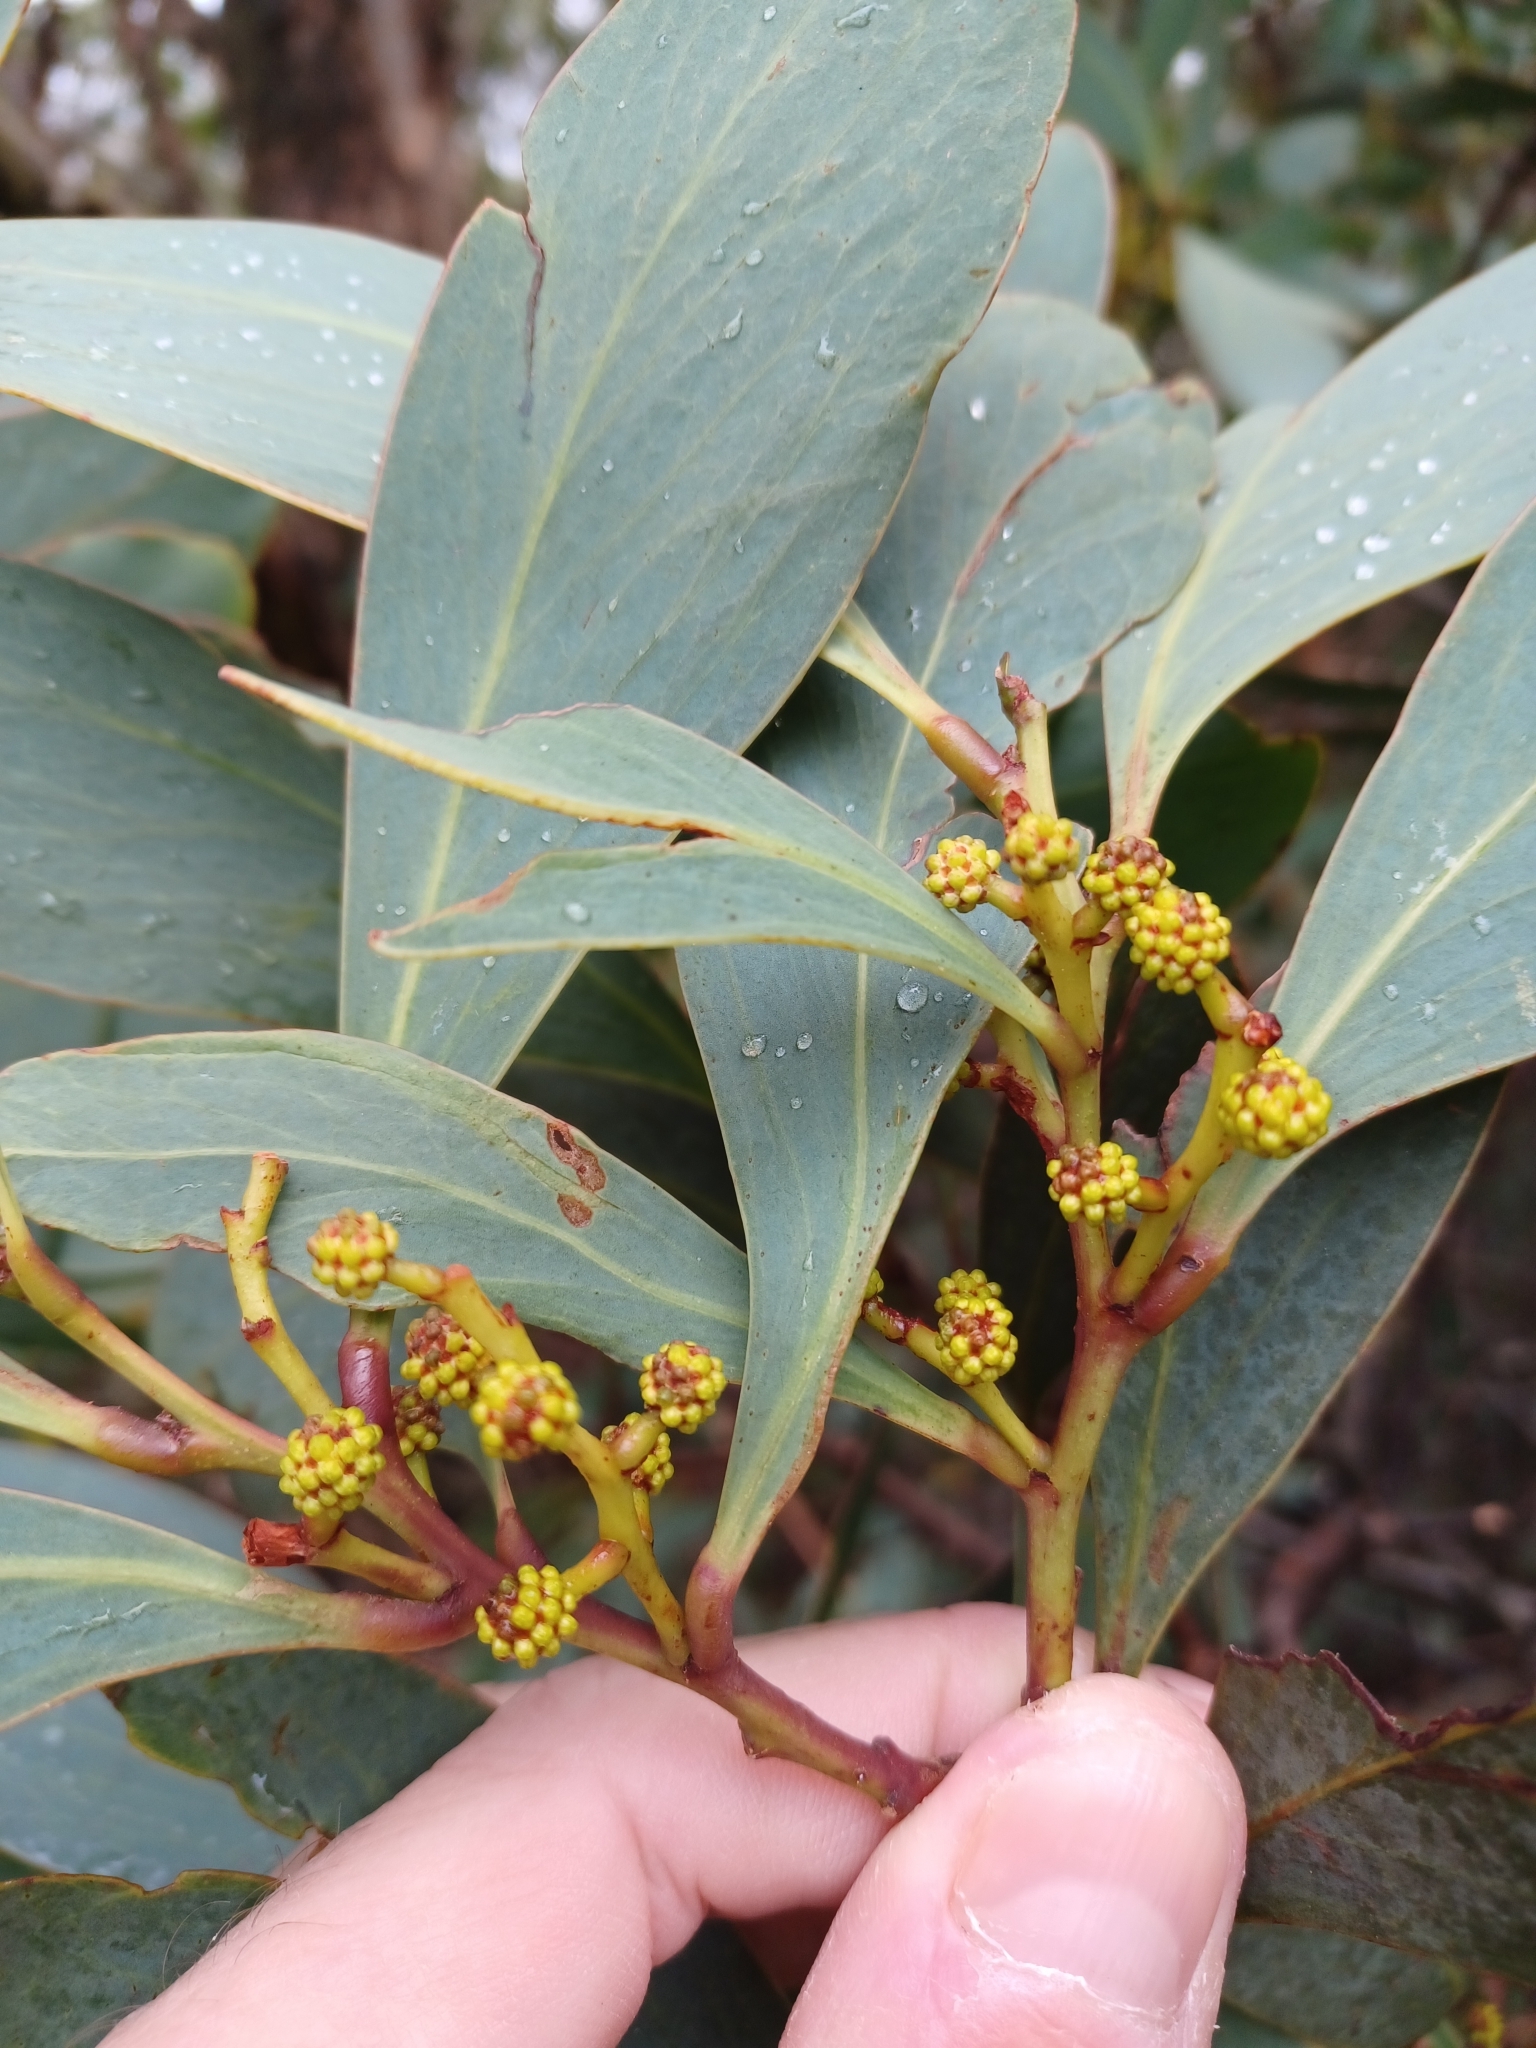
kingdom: Plantae
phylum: Tracheophyta
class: Magnoliopsida
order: Fabales
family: Fabaceae
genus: Acacia
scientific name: Acacia obliquinervia
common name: Mountain hickory wattle
